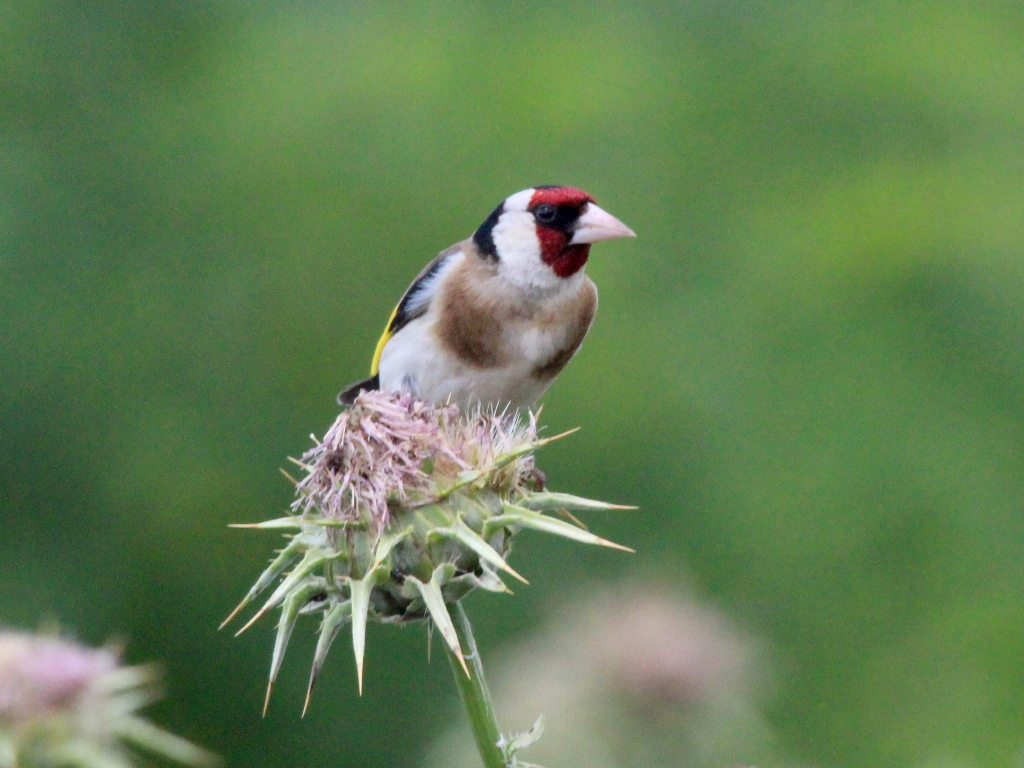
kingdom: Animalia
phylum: Chordata
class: Aves
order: Passeriformes
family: Fringillidae
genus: Carduelis
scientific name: Carduelis carduelis
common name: European goldfinch
